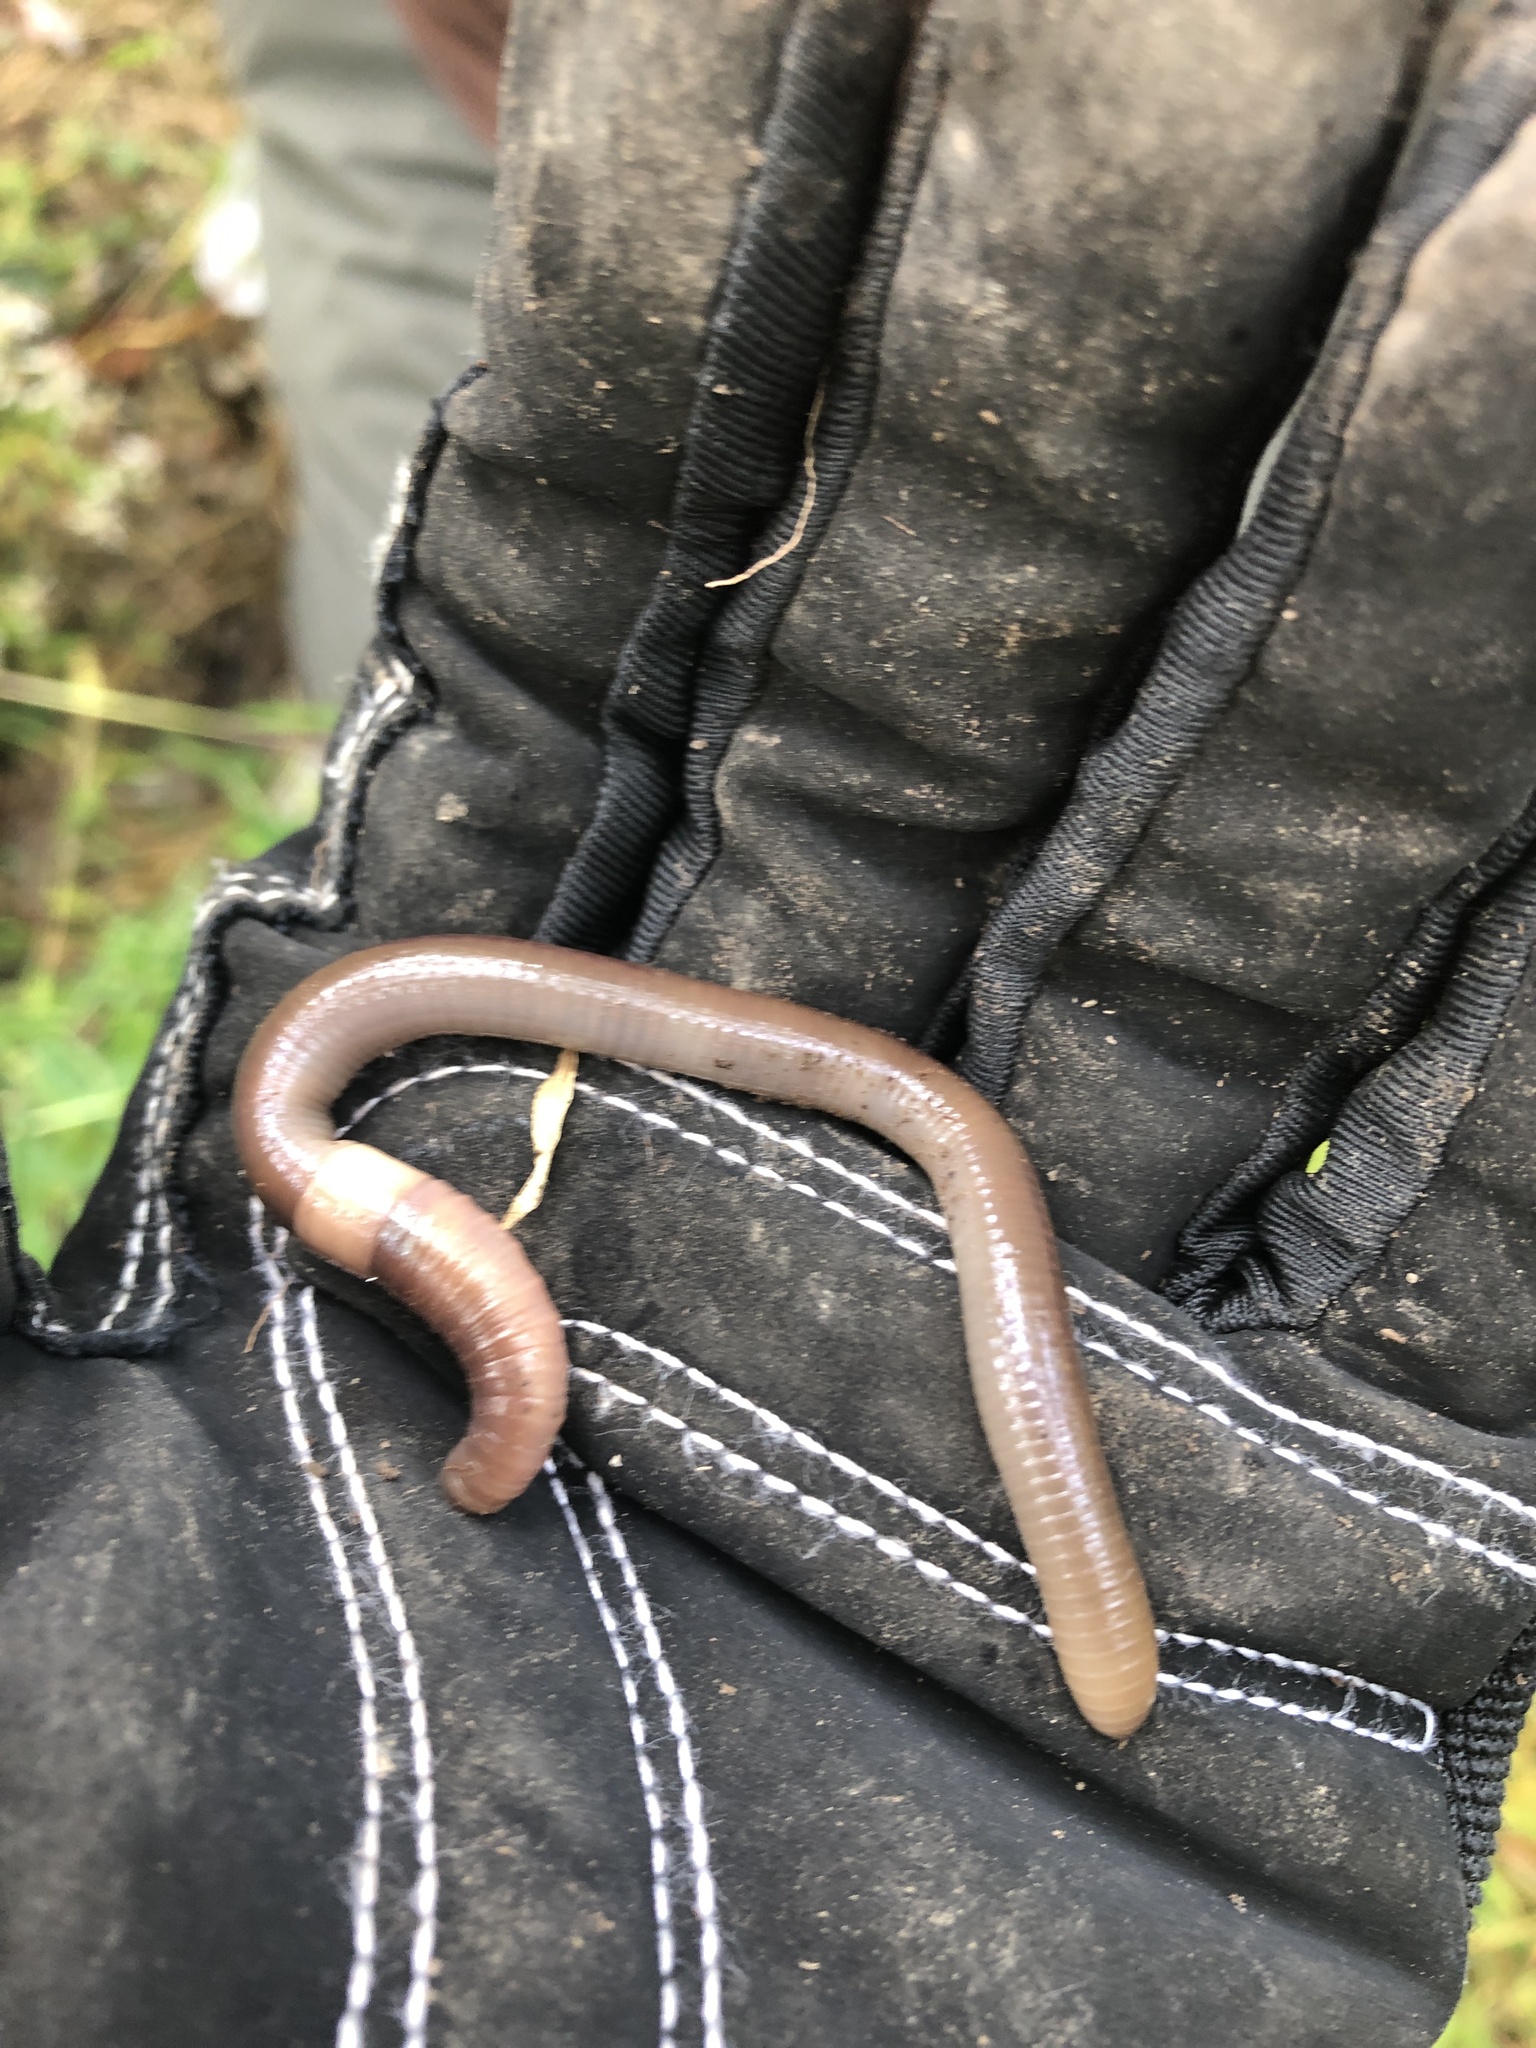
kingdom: Animalia
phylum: Annelida
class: Clitellata
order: Crassiclitellata
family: Lumbricidae
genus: Lumbricus
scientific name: Lumbricus terrestris
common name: Common earthworm
